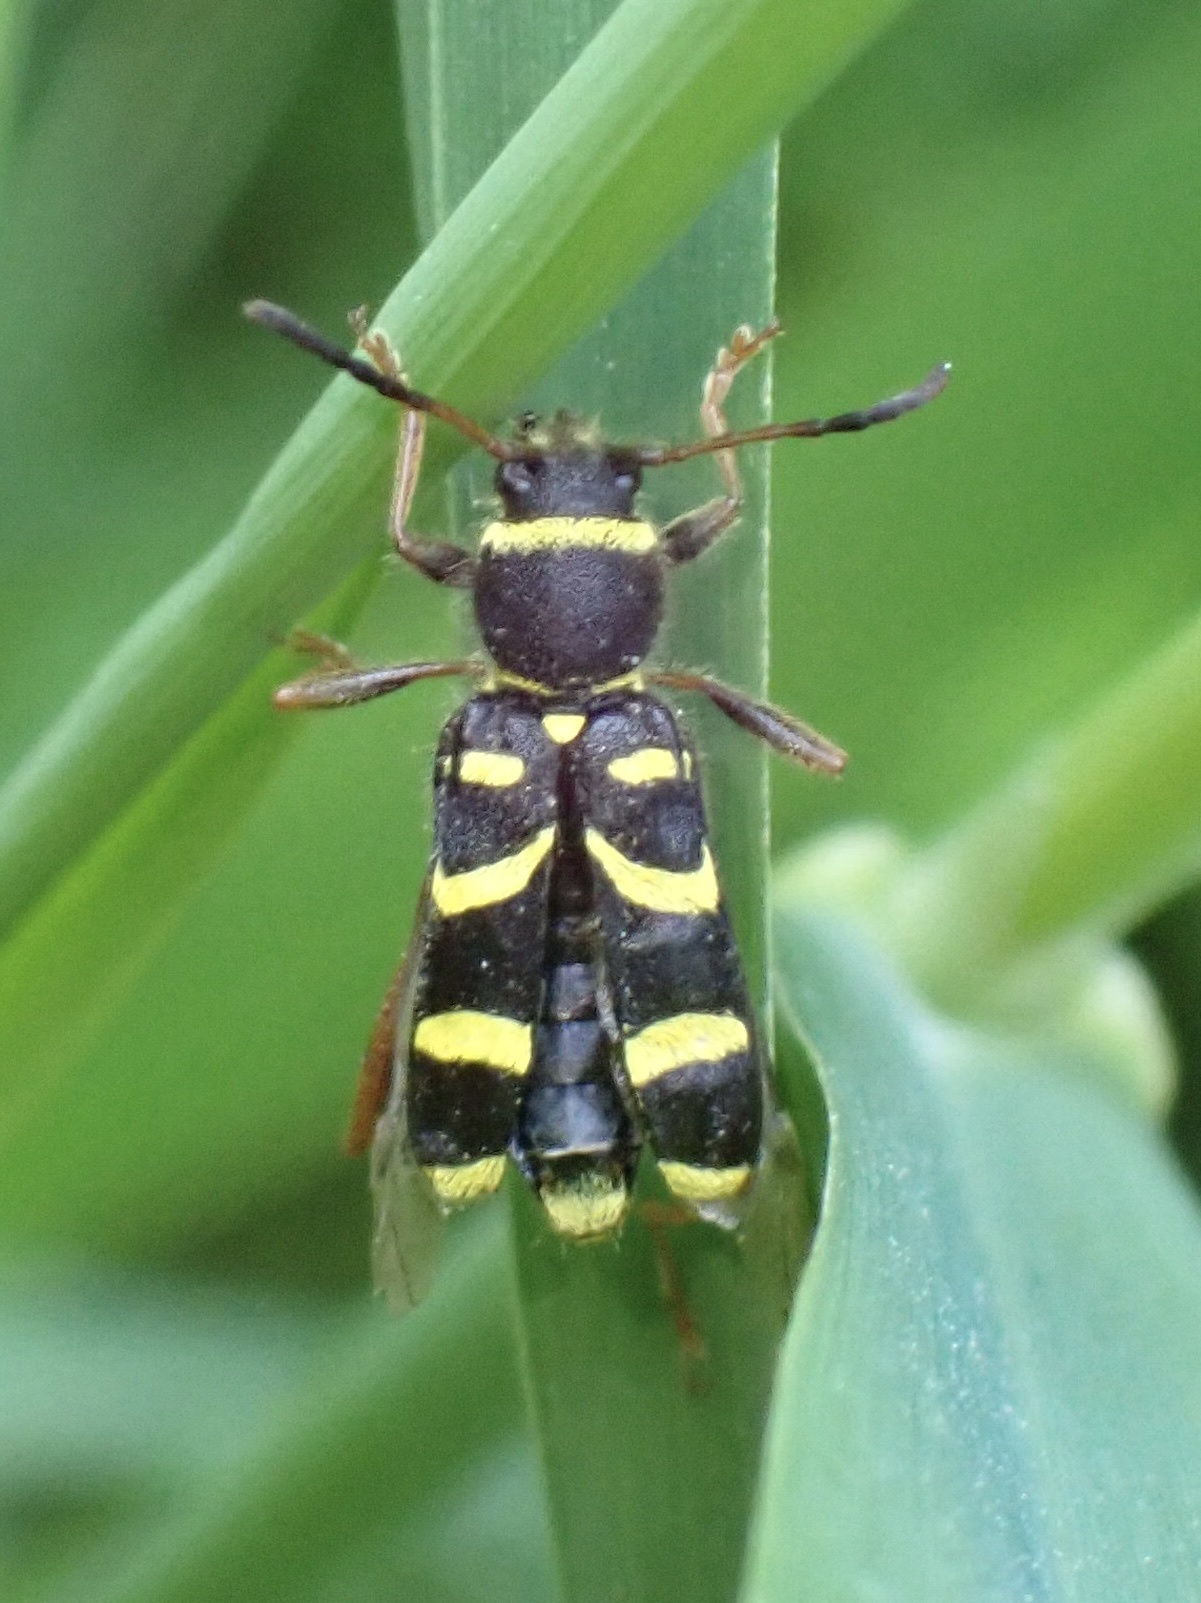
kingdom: Animalia
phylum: Arthropoda
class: Insecta
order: Coleoptera
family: Cerambycidae
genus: Clytus
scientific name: Clytus arietis
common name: Wasp beetle
